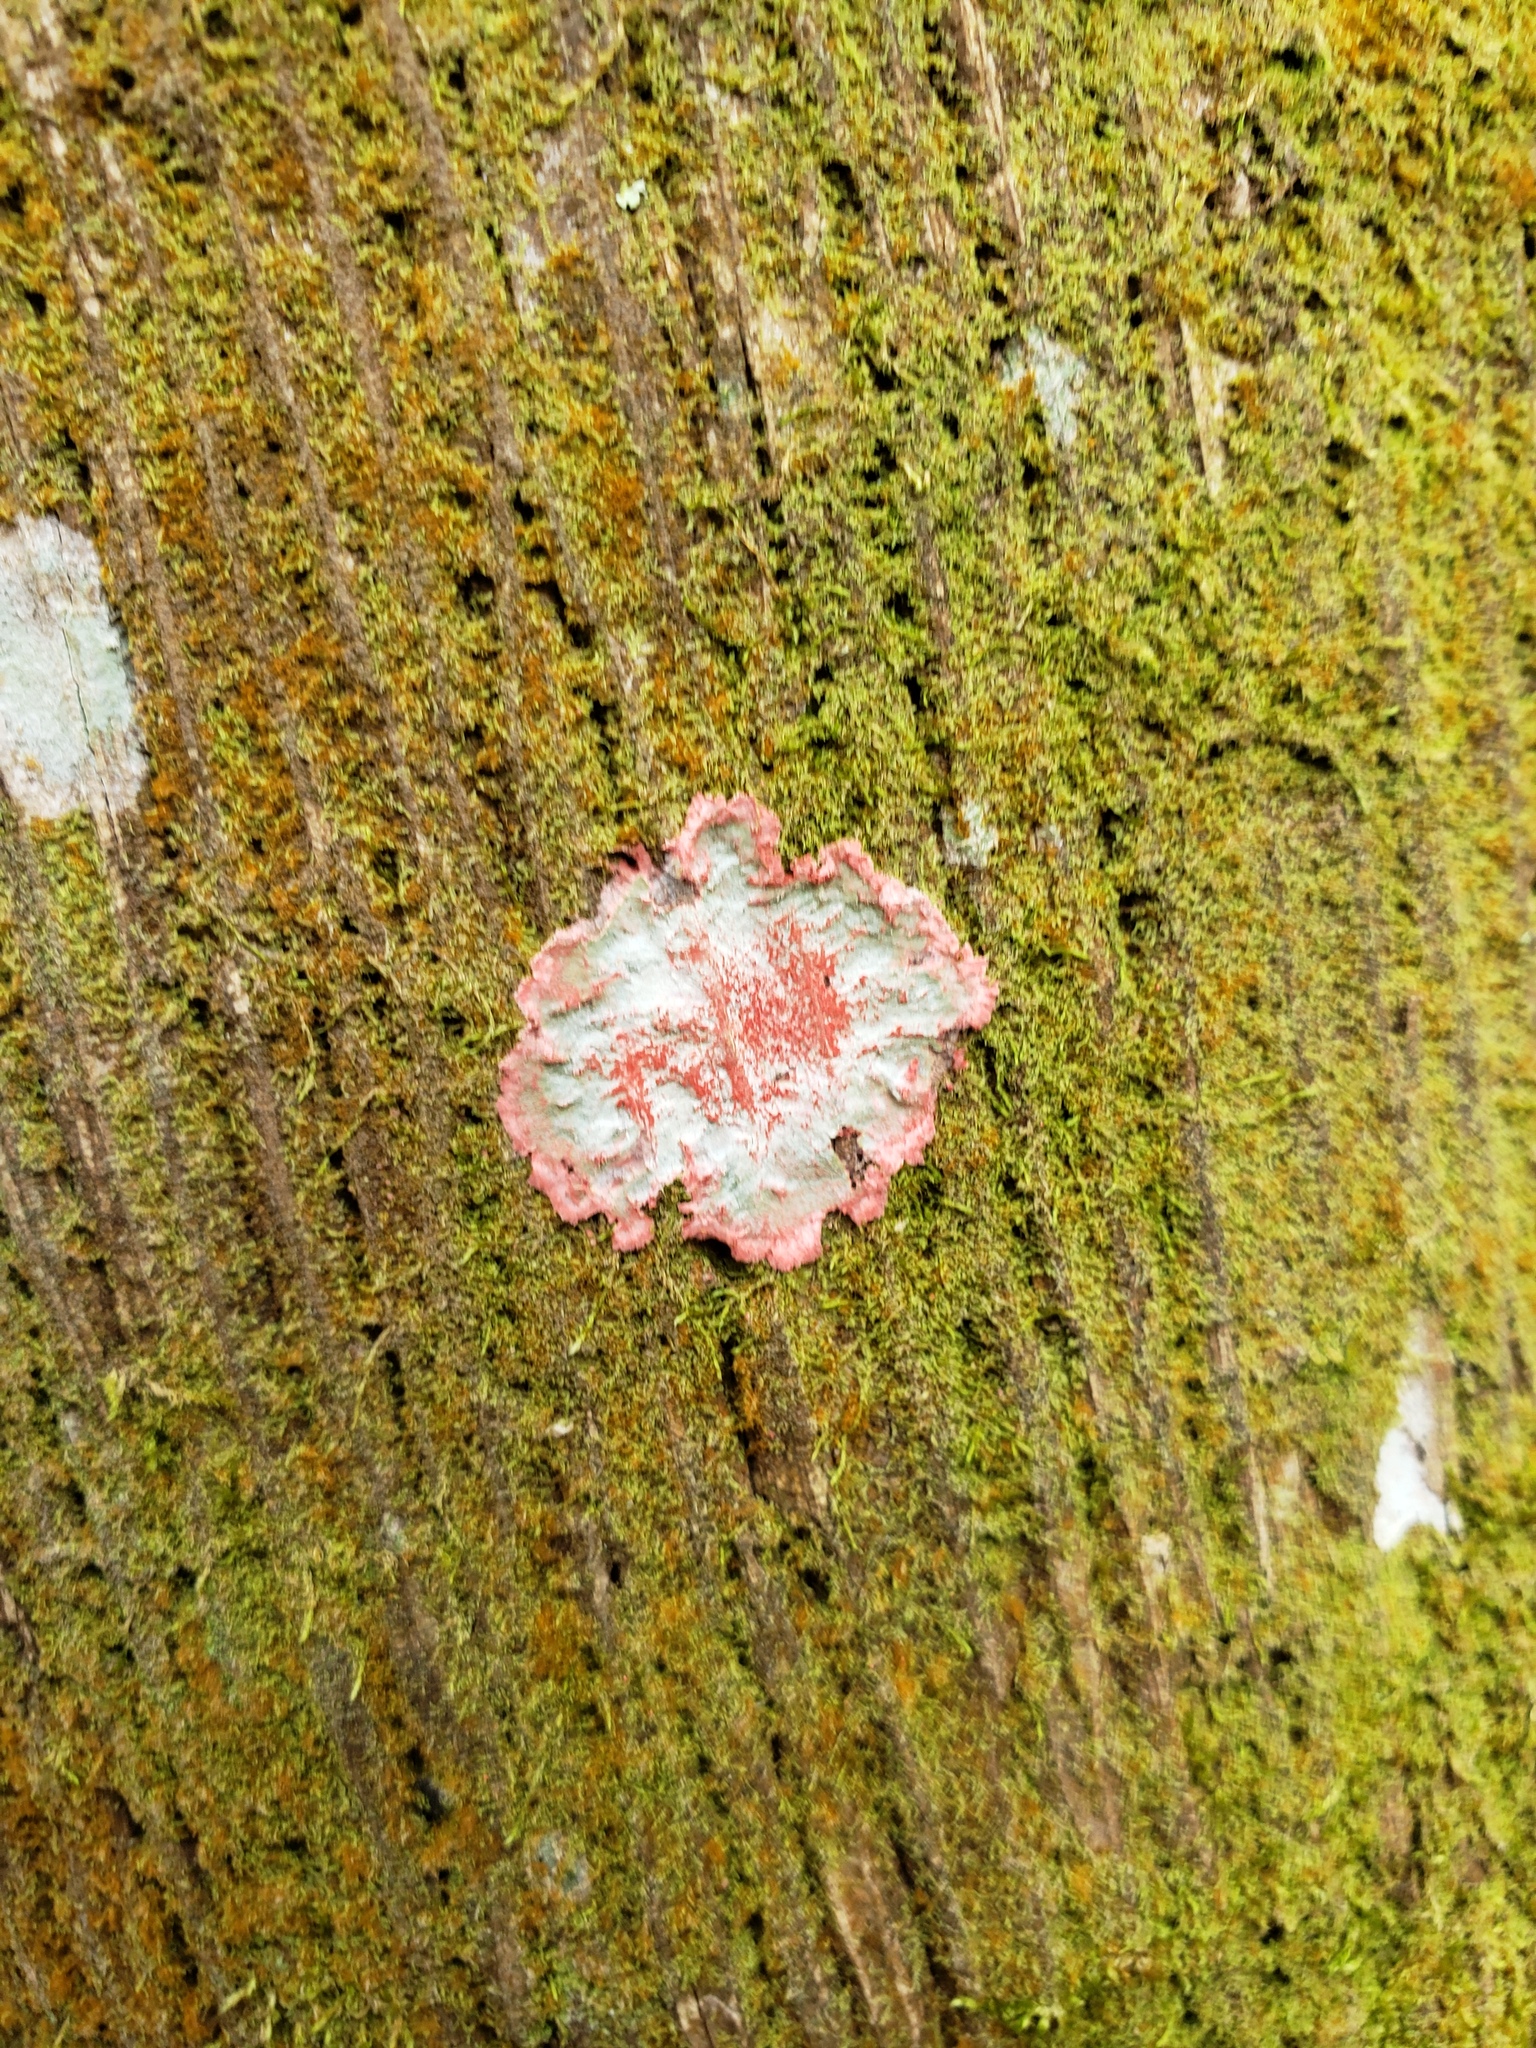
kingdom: Fungi
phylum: Ascomycota
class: Arthoniomycetes
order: Arthoniales
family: Arthoniaceae
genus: Herpothallon
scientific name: Herpothallon rubrocinctum
